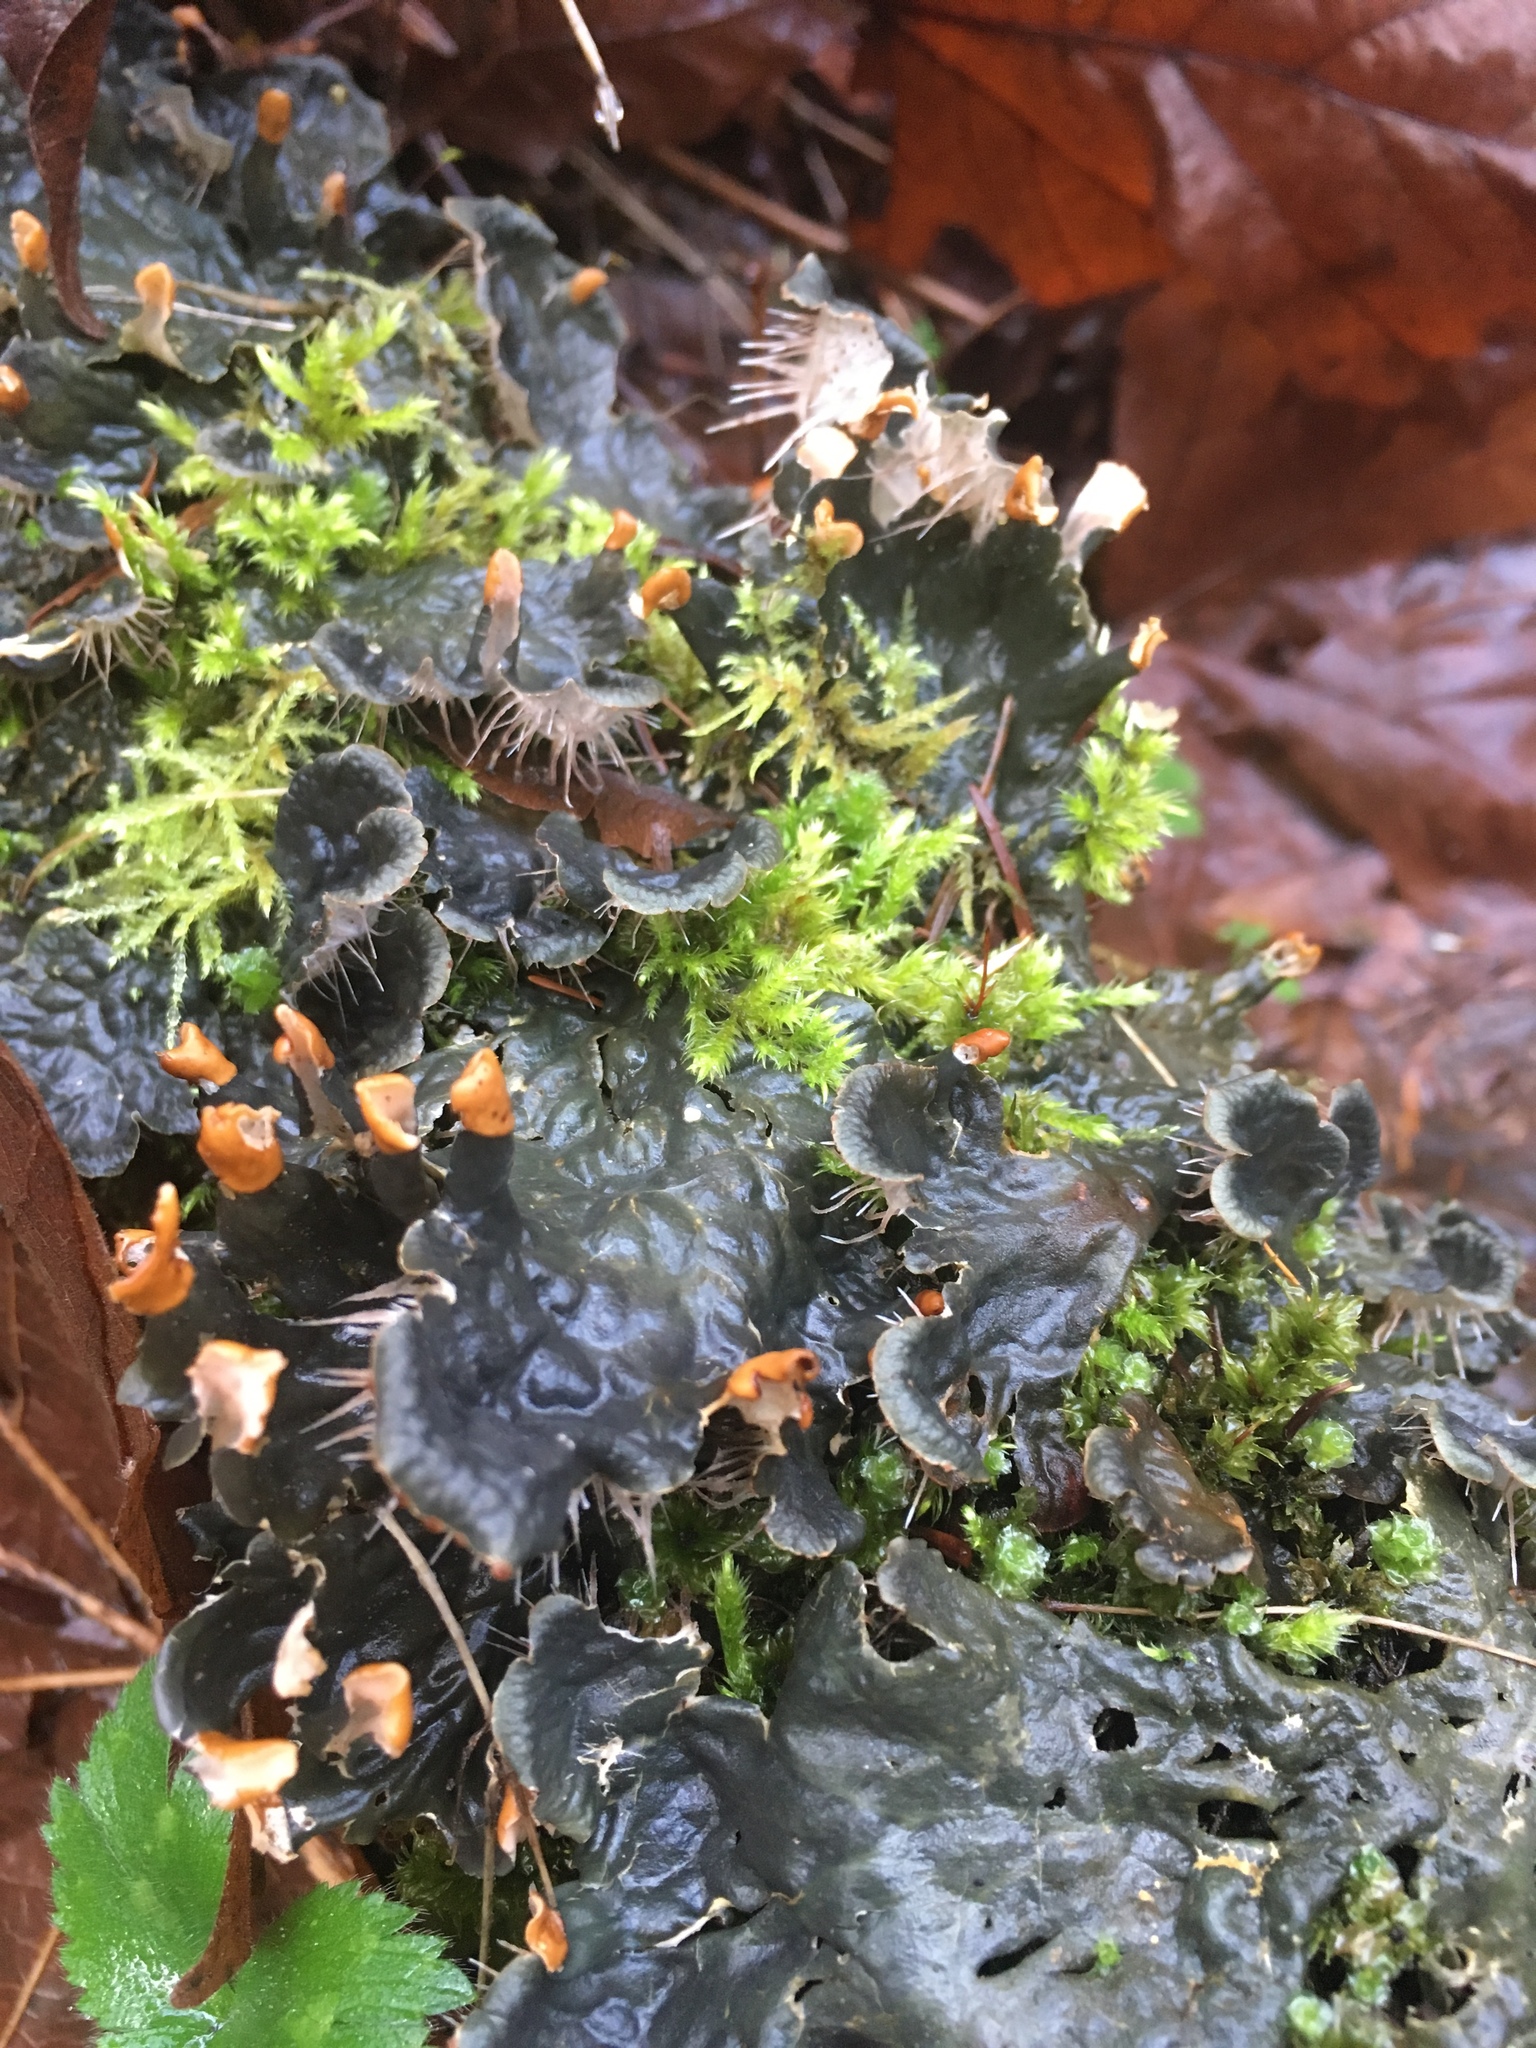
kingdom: Fungi
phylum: Ascomycota
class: Lecanoromycetes
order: Peltigerales
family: Peltigeraceae
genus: Peltigera
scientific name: Peltigera membranacea
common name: Membranous pelt lichen
